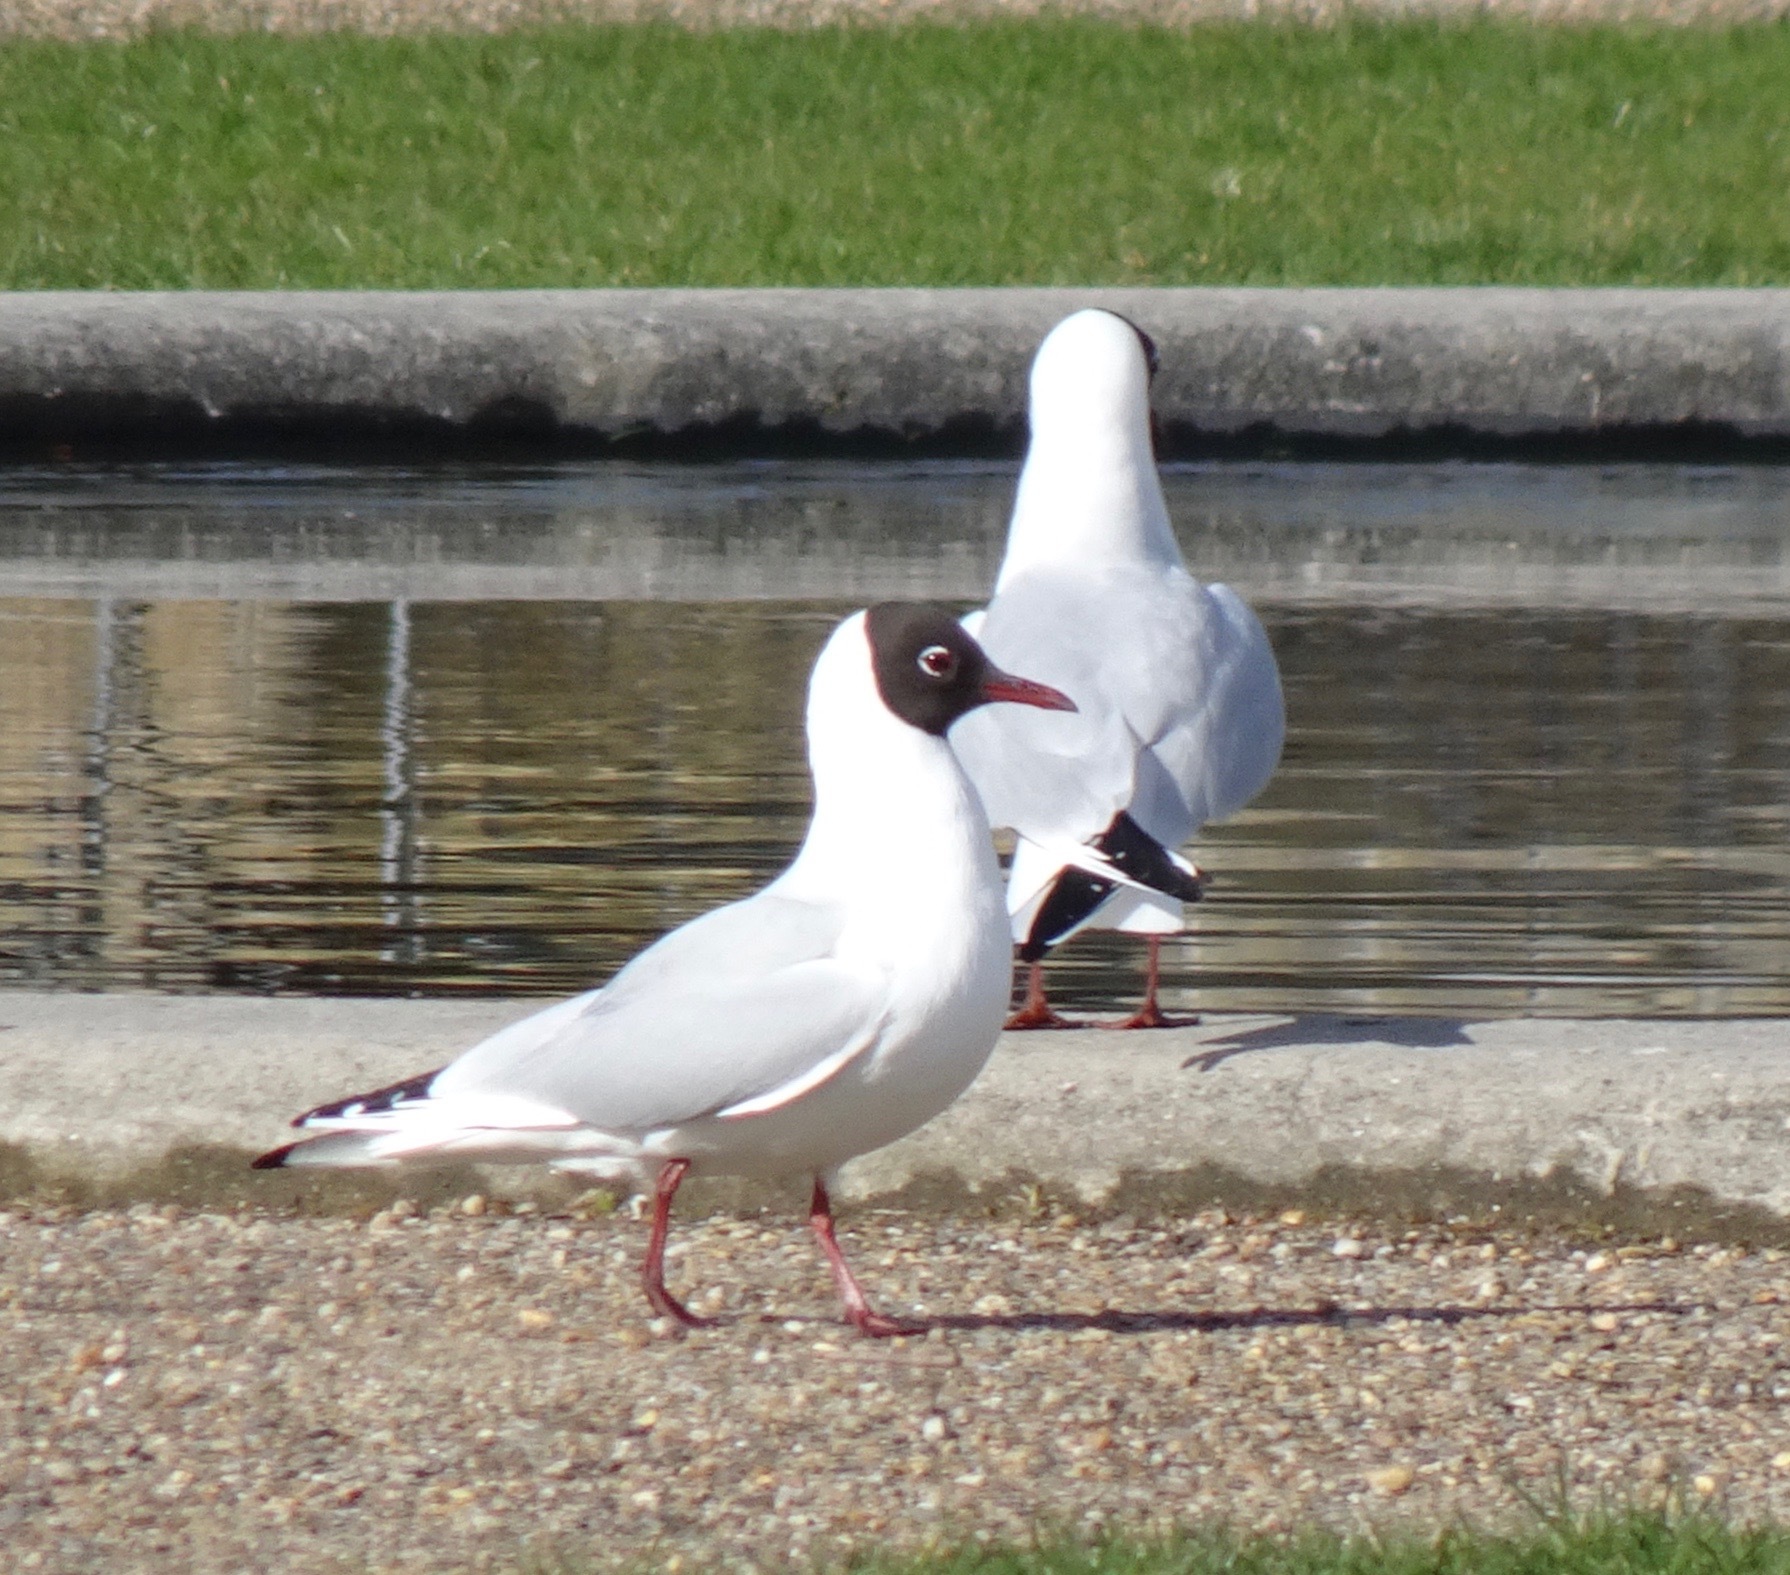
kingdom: Animalia
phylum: Chordata
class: Aves
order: Charadriiformes
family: Laridae
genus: Chroicocephalus
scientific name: Chroicocephalus ridibundus
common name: Black-headed gull
